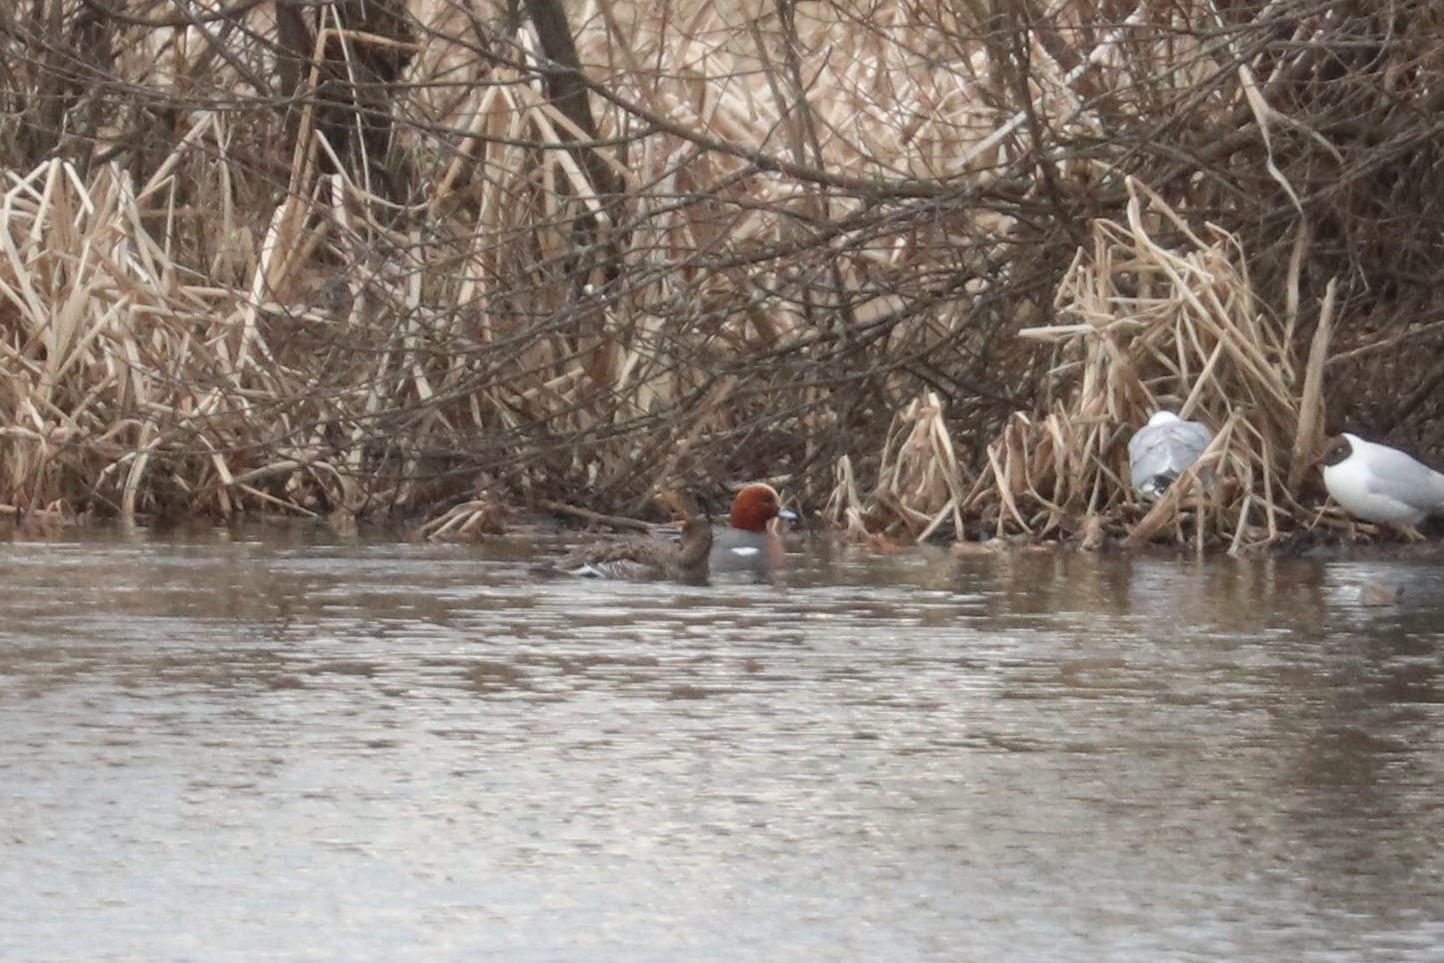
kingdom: Animalia
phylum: Chordata
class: Aves
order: Anseriformes
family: Anatidae
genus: Mareca
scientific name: Mareca penelope
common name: Eurasian wigeon
